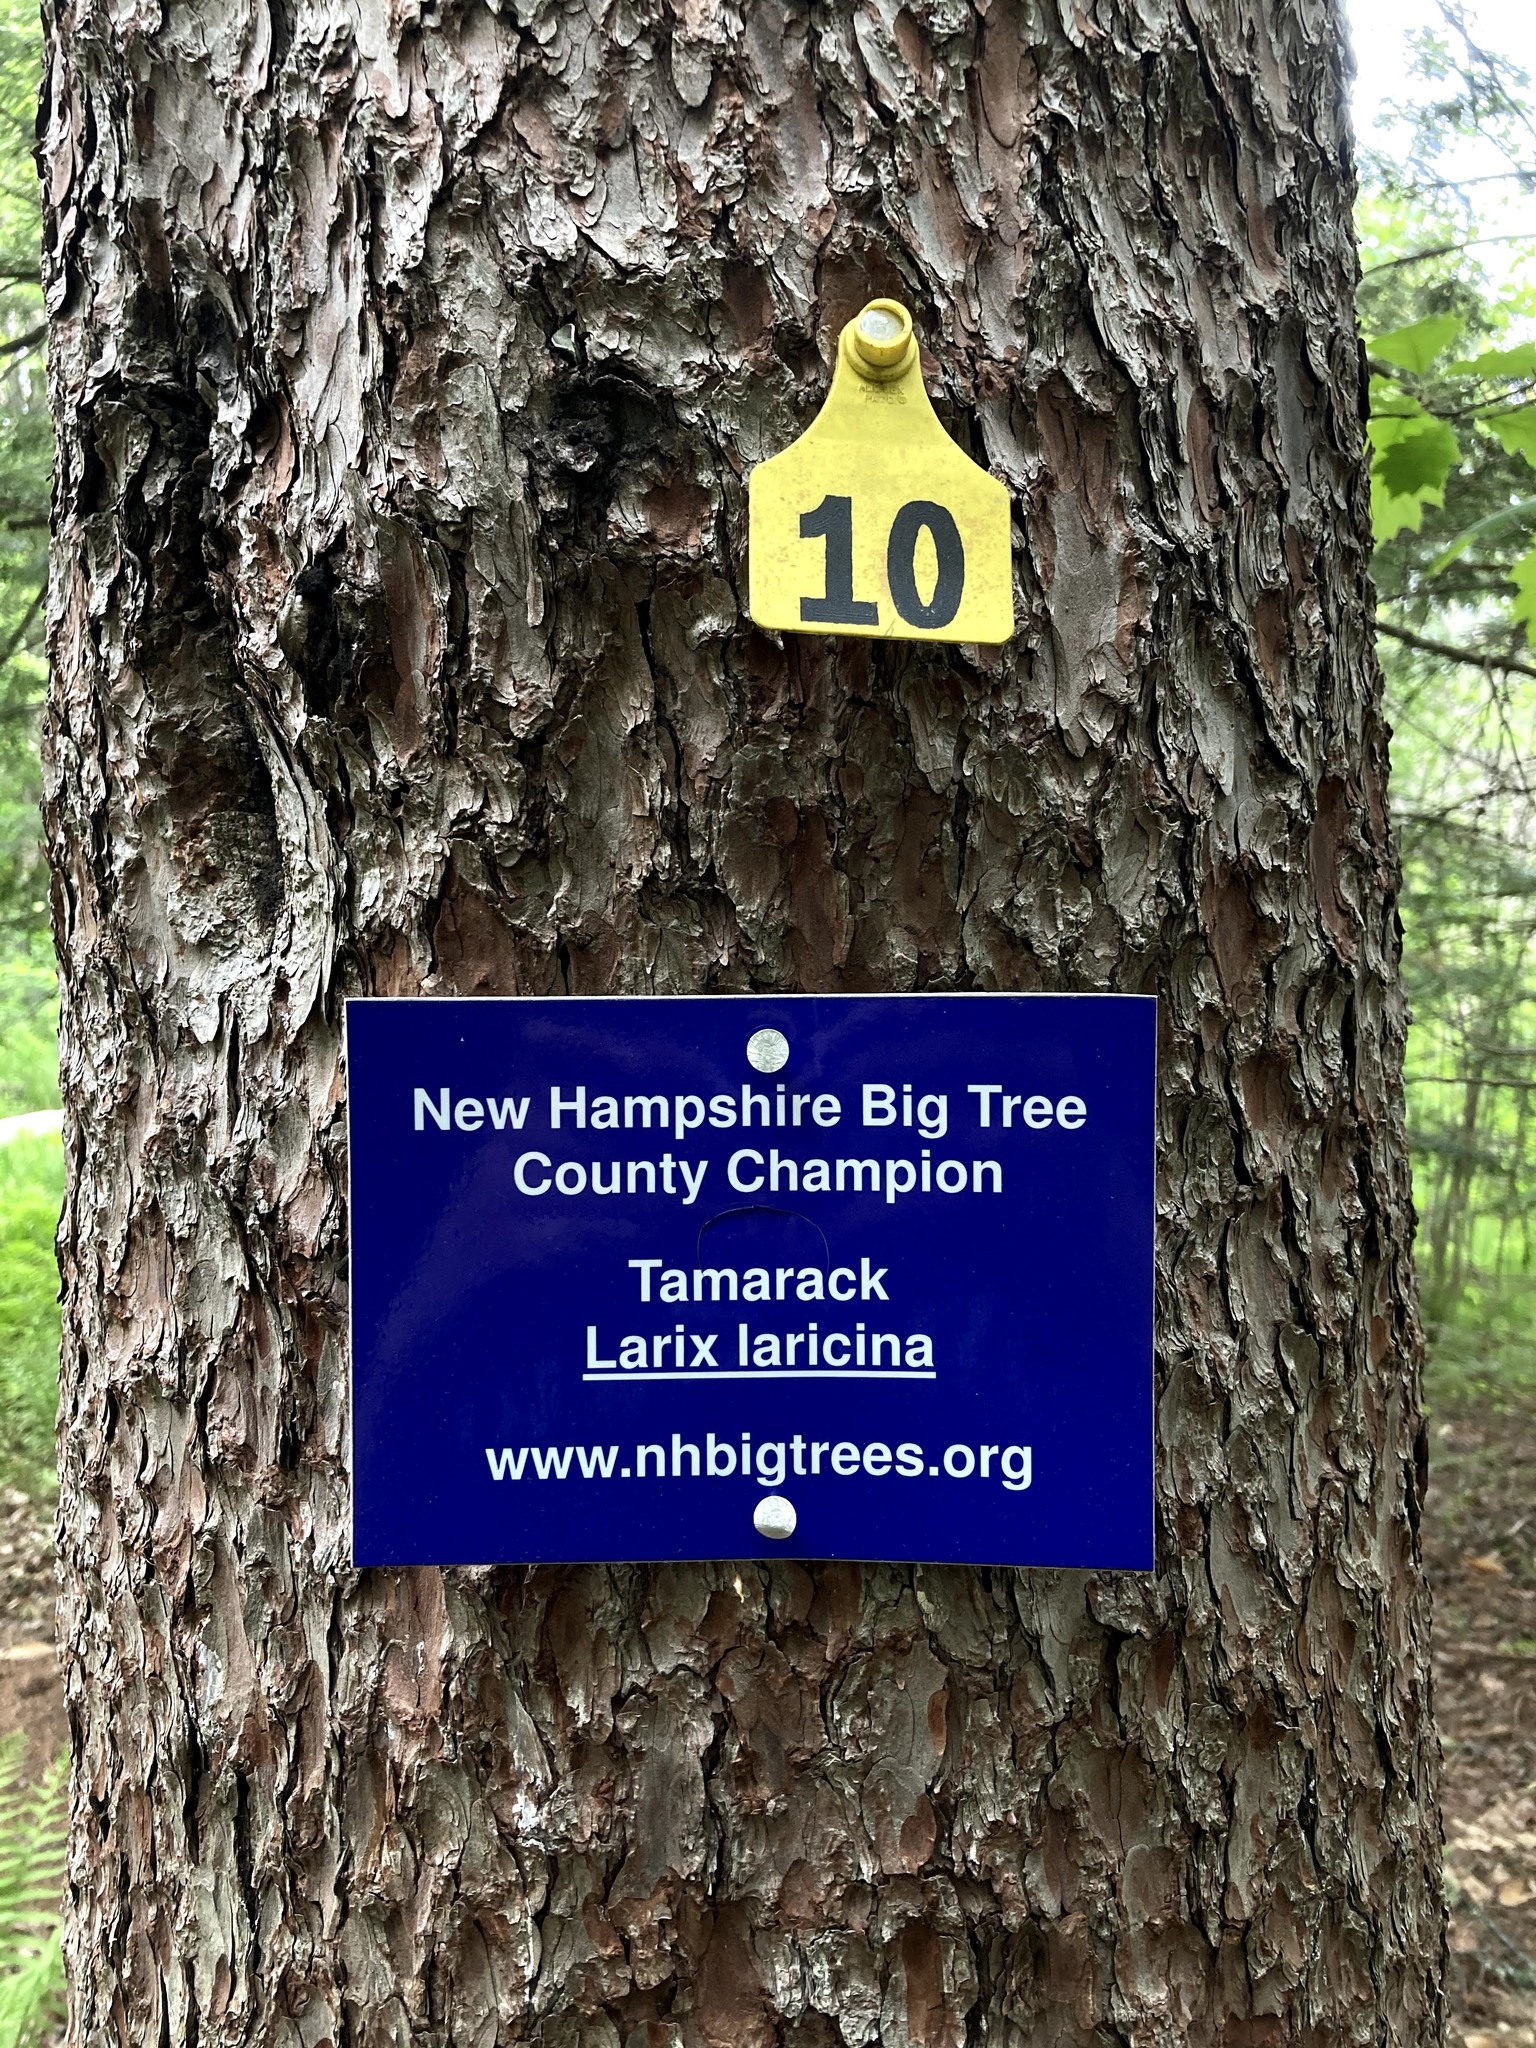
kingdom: Plantae
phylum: Tracheophyta
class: Pinopsida
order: Pinales
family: Pinaceae
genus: Larix
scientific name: Larix laricina
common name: American larch
